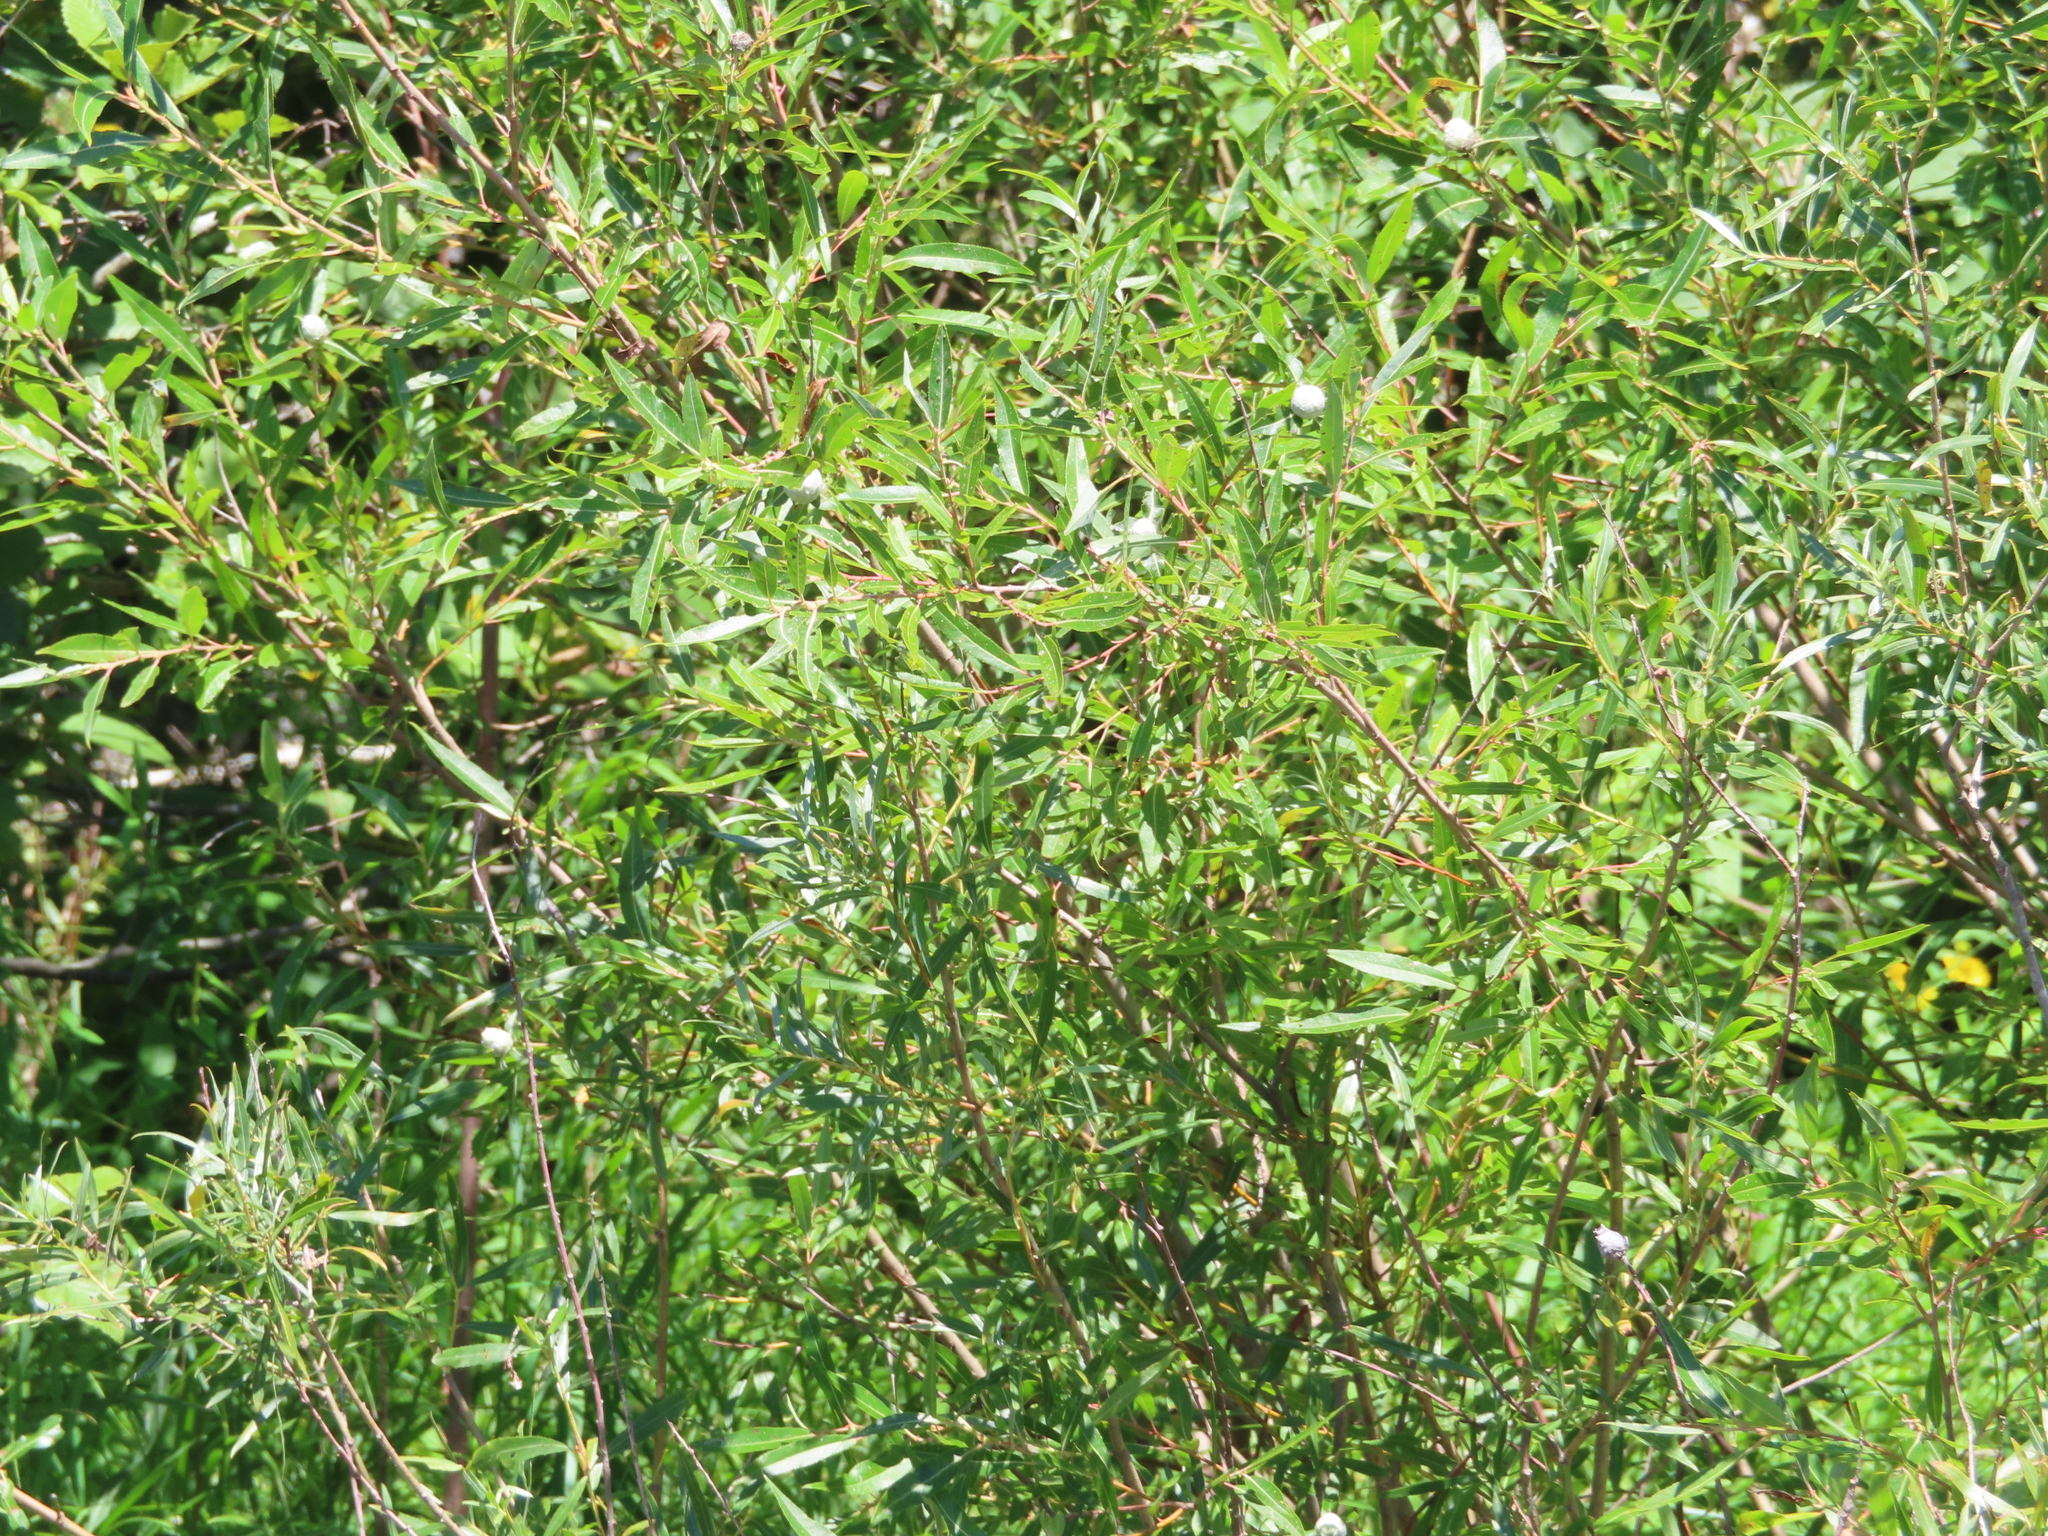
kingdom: Plantae
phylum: Tracheophyta
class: Magnoliopsida
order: Malpighiales
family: Salicaceae
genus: Salix
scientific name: Salix interior
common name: Sandbar willow
